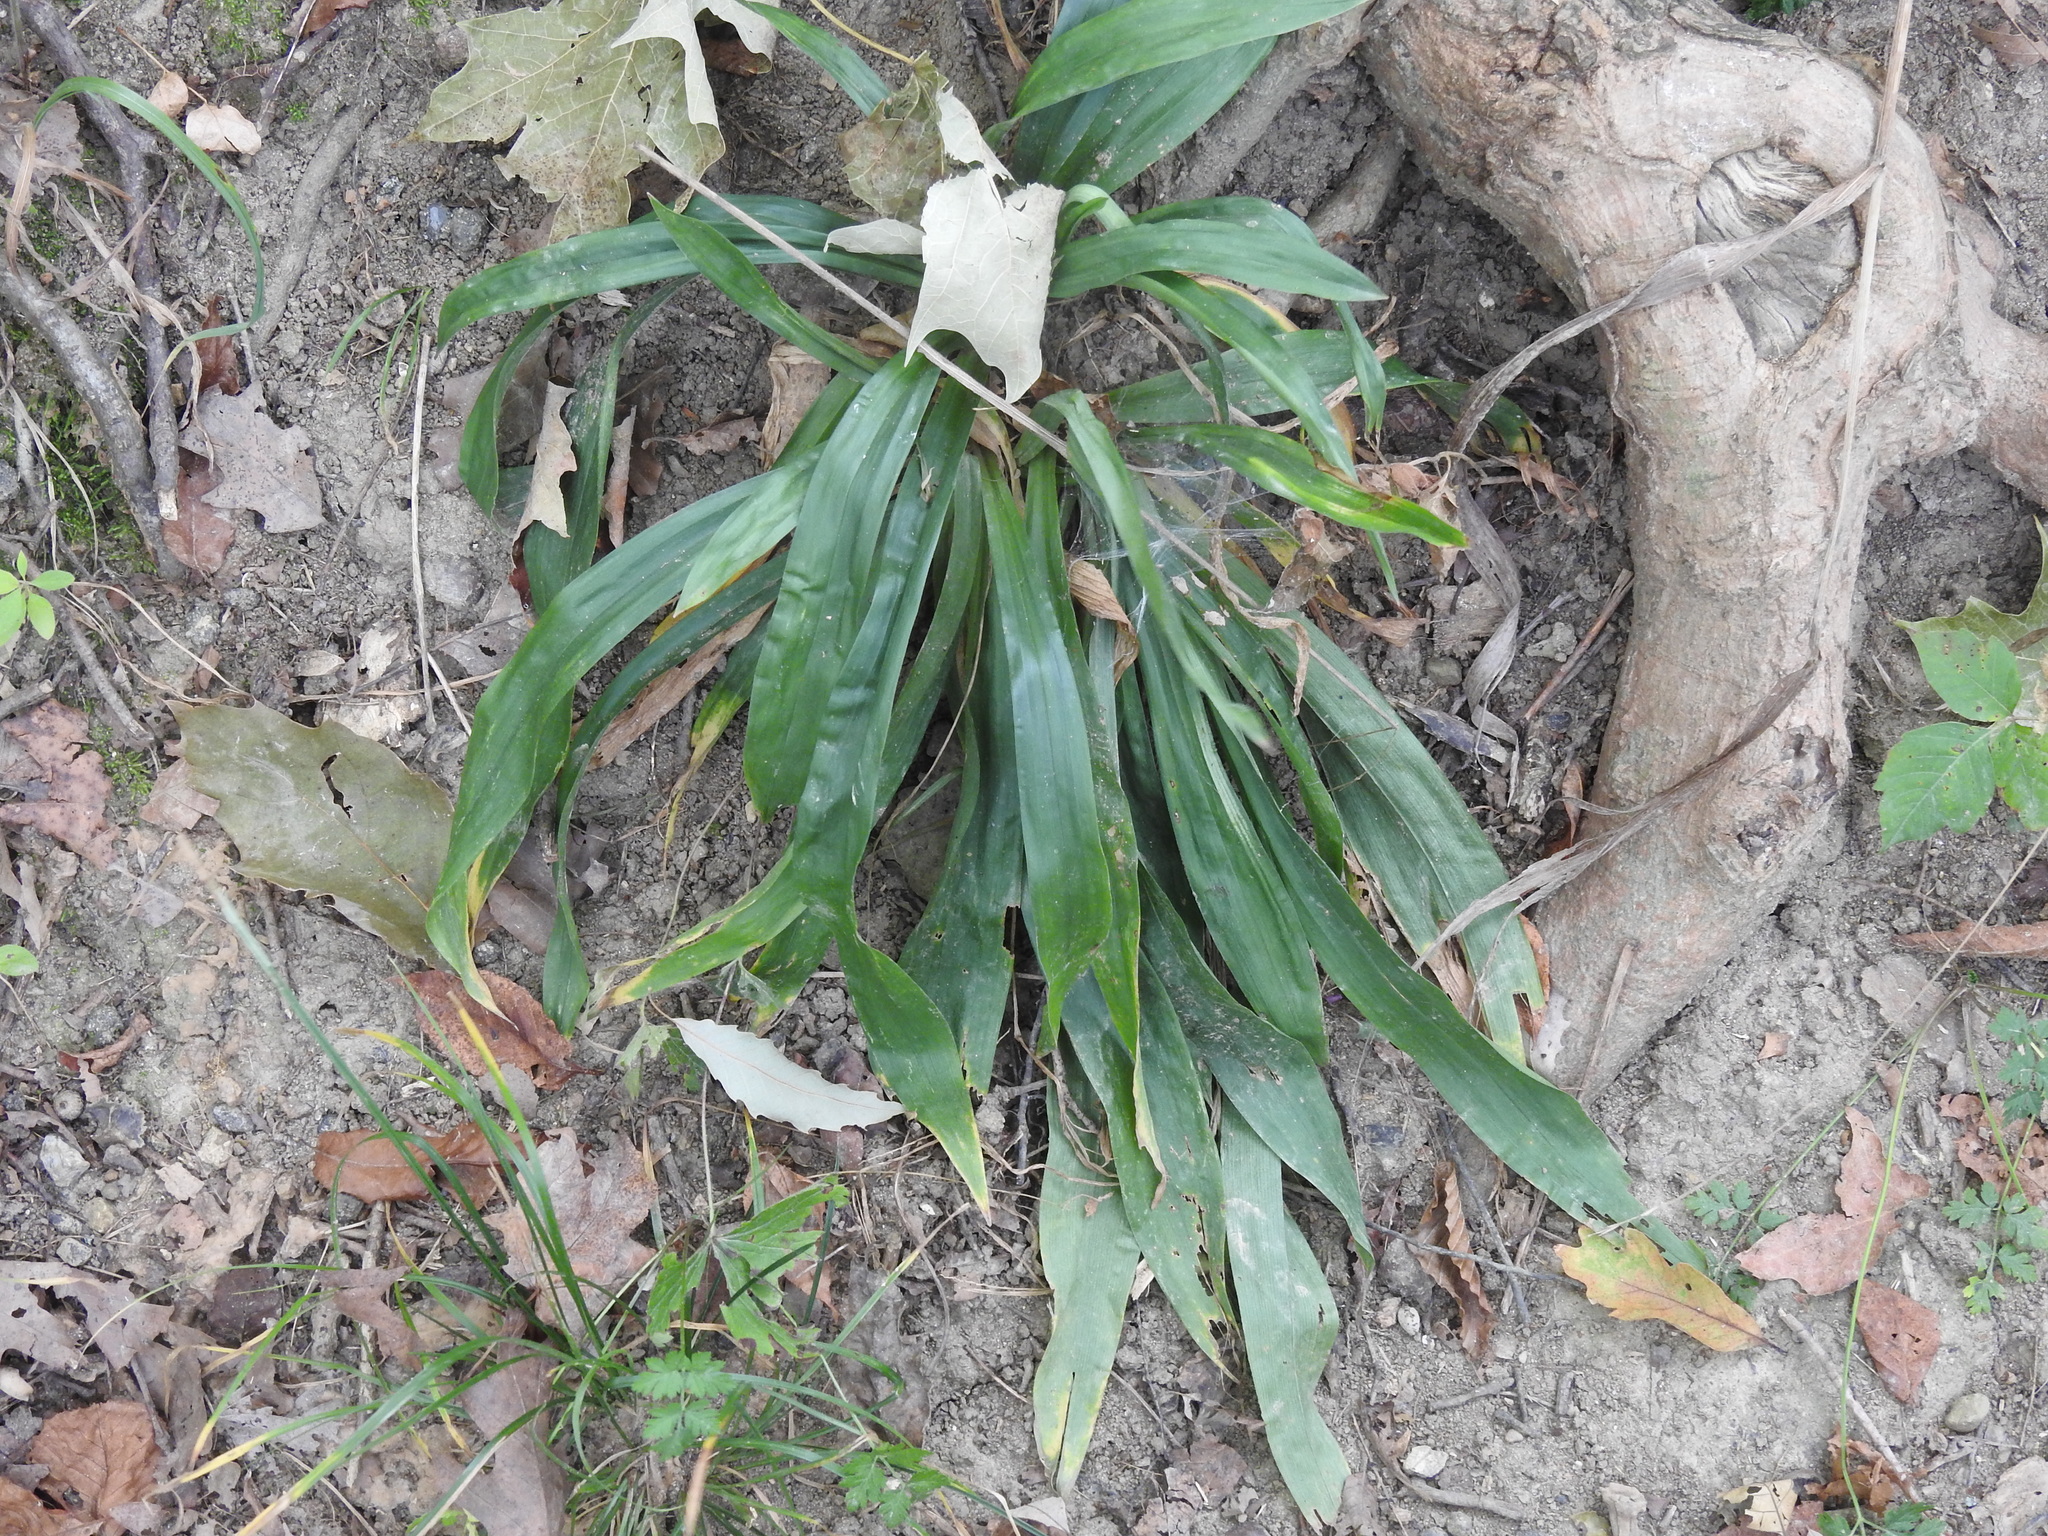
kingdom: Plantae
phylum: Tracheophyta
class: Liliopsida
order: Poales
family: Cyperaceae
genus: Carex
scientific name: Carex albursina
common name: Blunt-scale wood sedge
